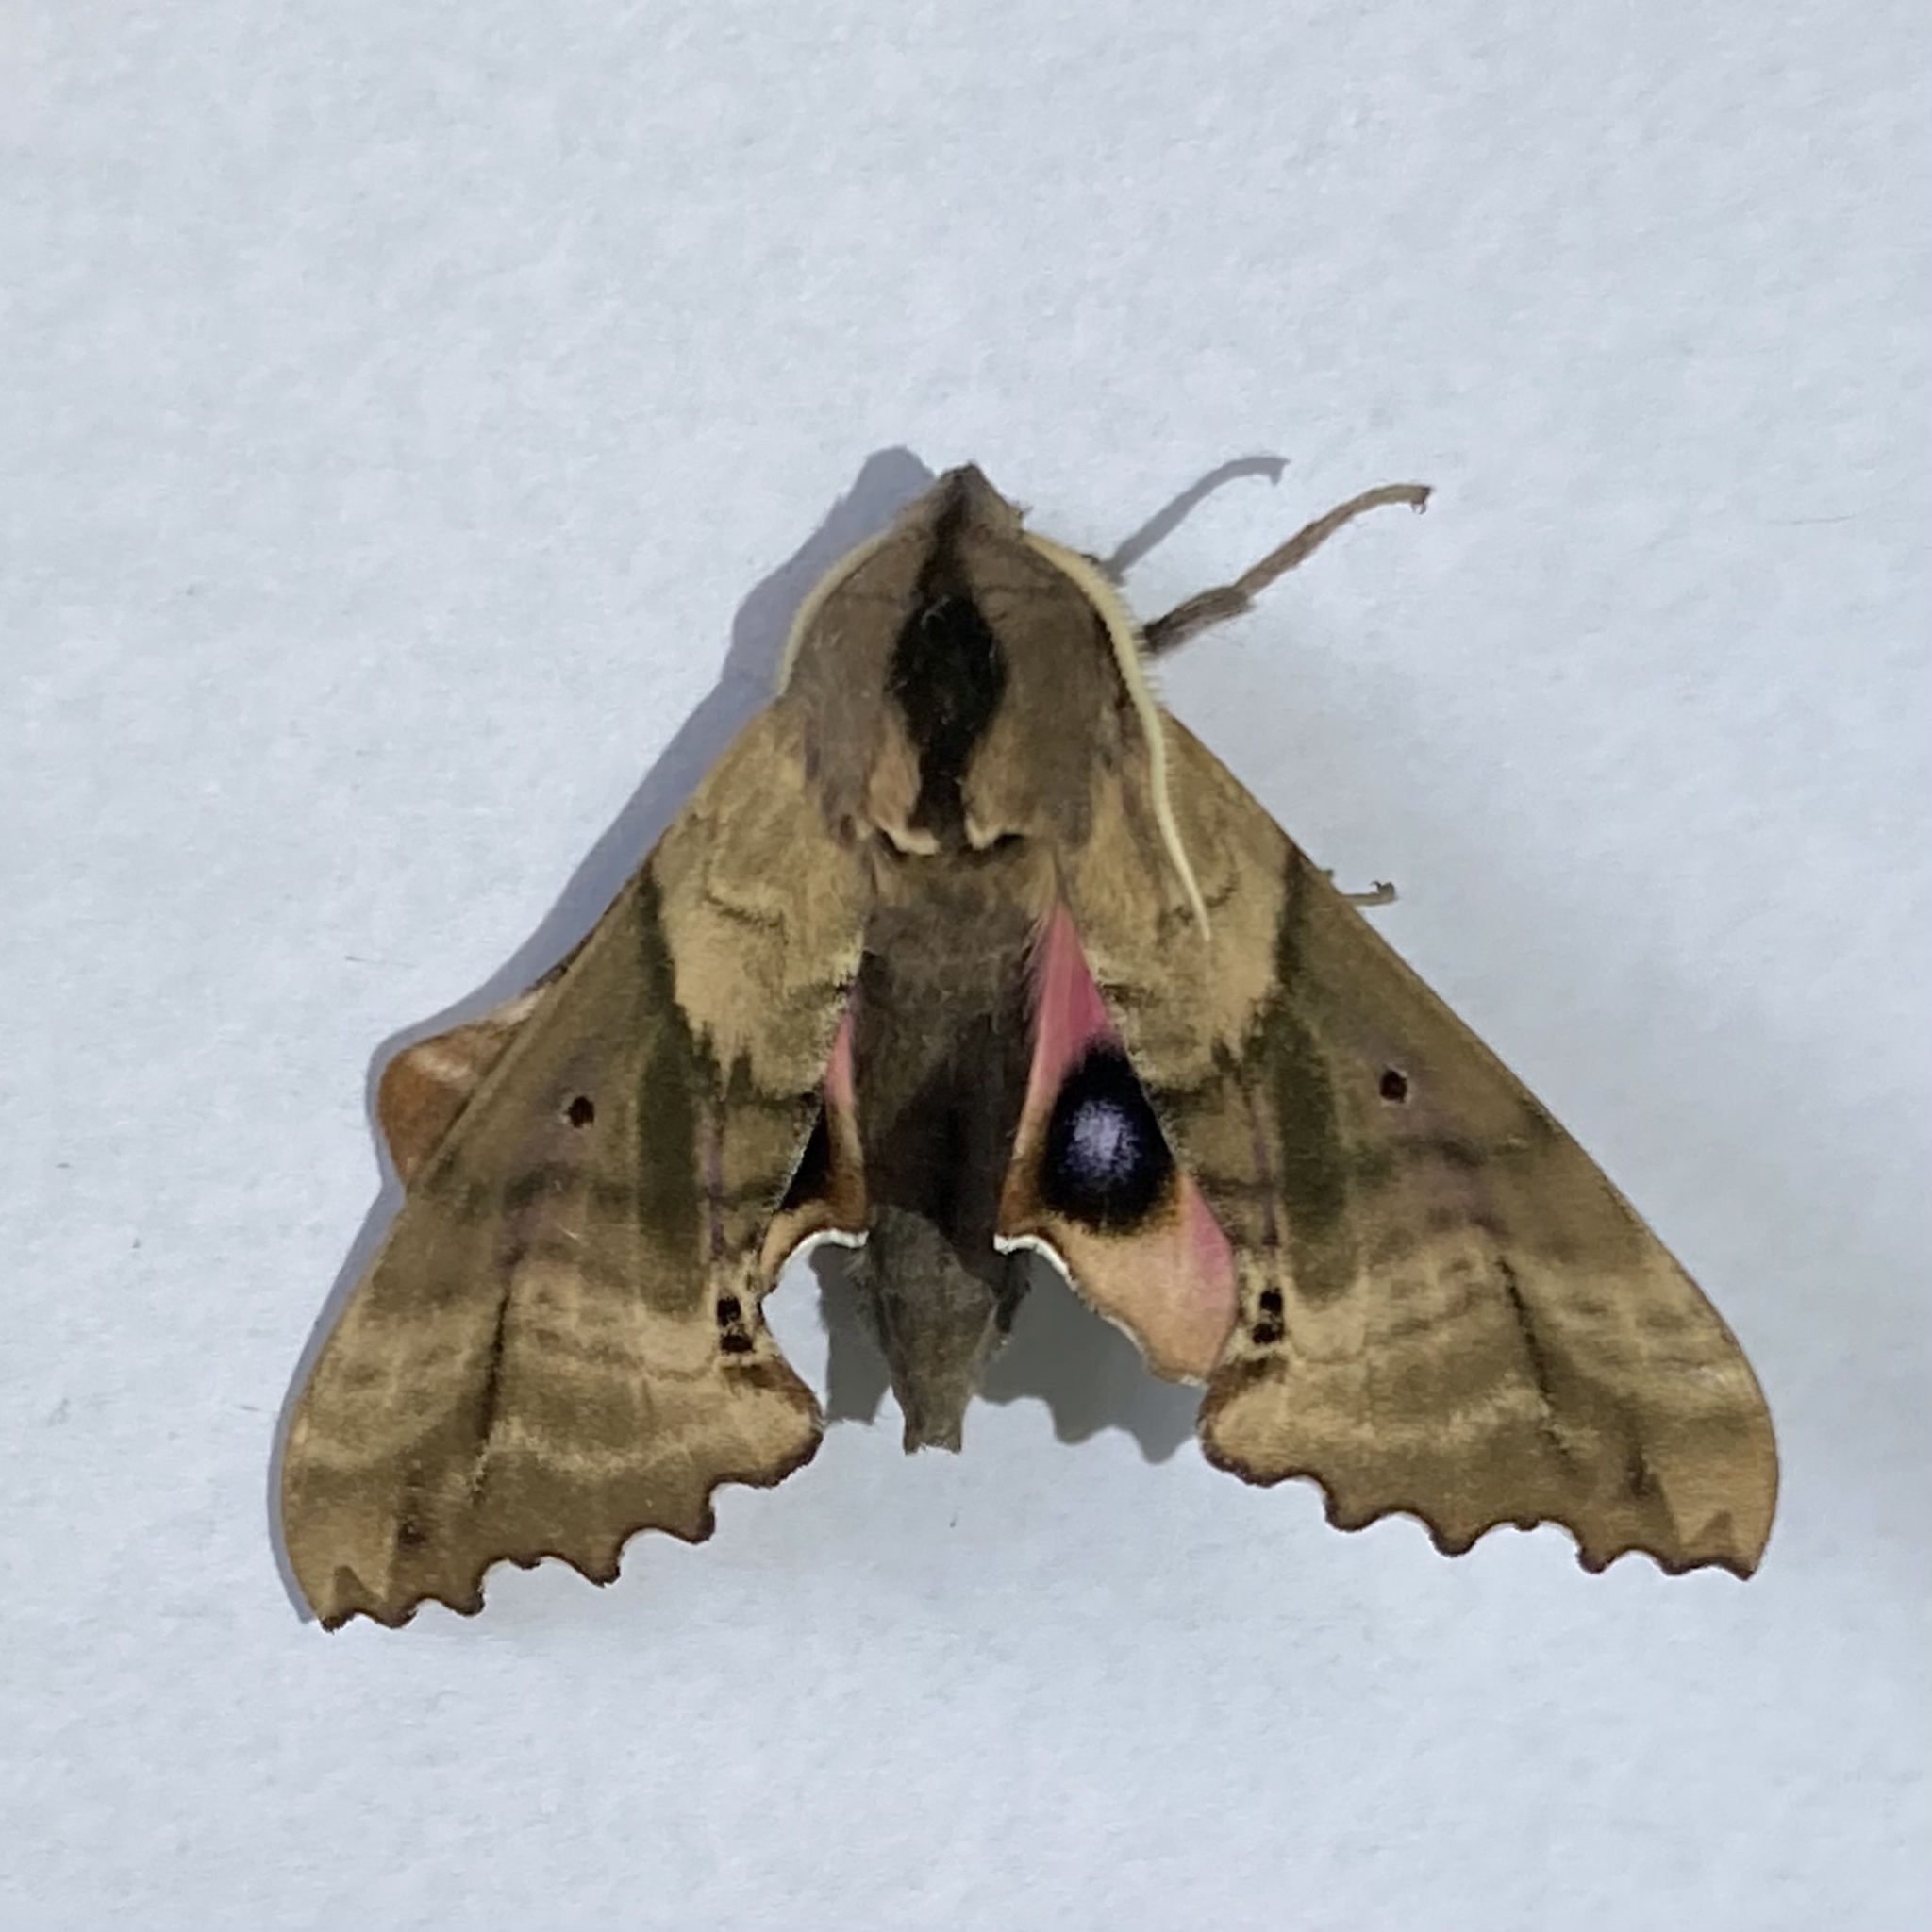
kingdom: Animalia
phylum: Arthropoda
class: Insecta
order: Lepidoptera
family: Sphingidae
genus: Paonias
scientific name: Paonias excaecata
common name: Blind-eyed sphinx
